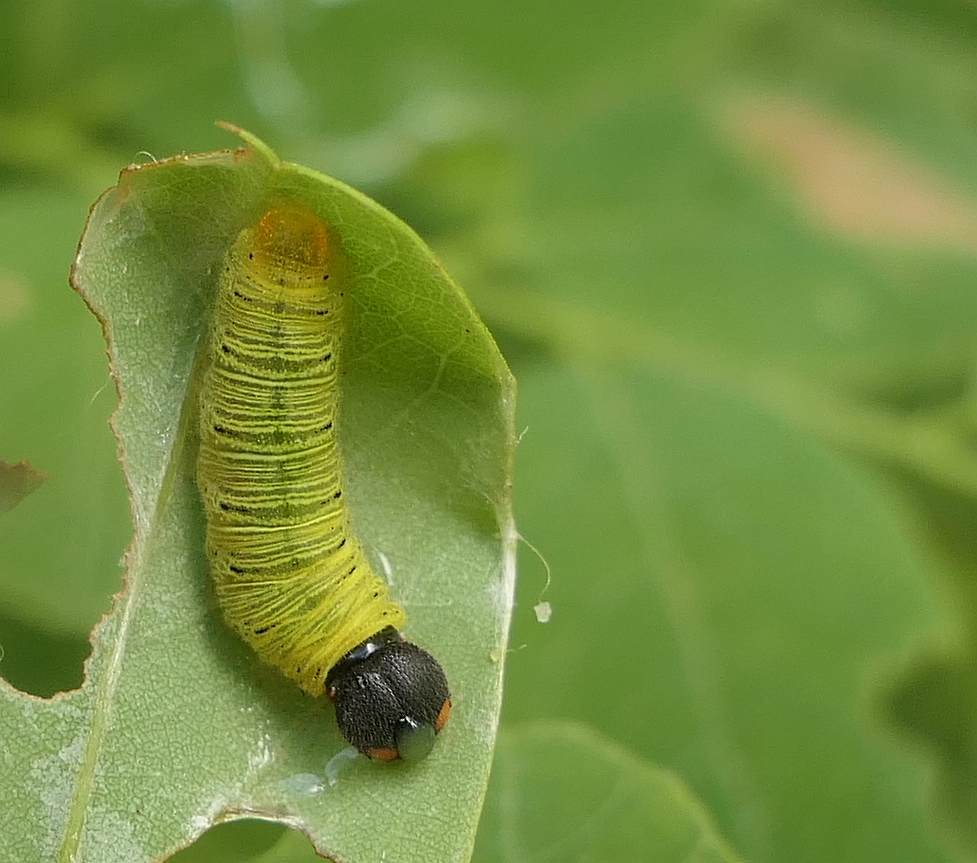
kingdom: Animalia
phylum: Arthropoda
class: Insecta
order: Lepidoptera
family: Hesperiidae
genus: Epargyreus
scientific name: Epargyreus clarus
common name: Silver-spotted skipper
